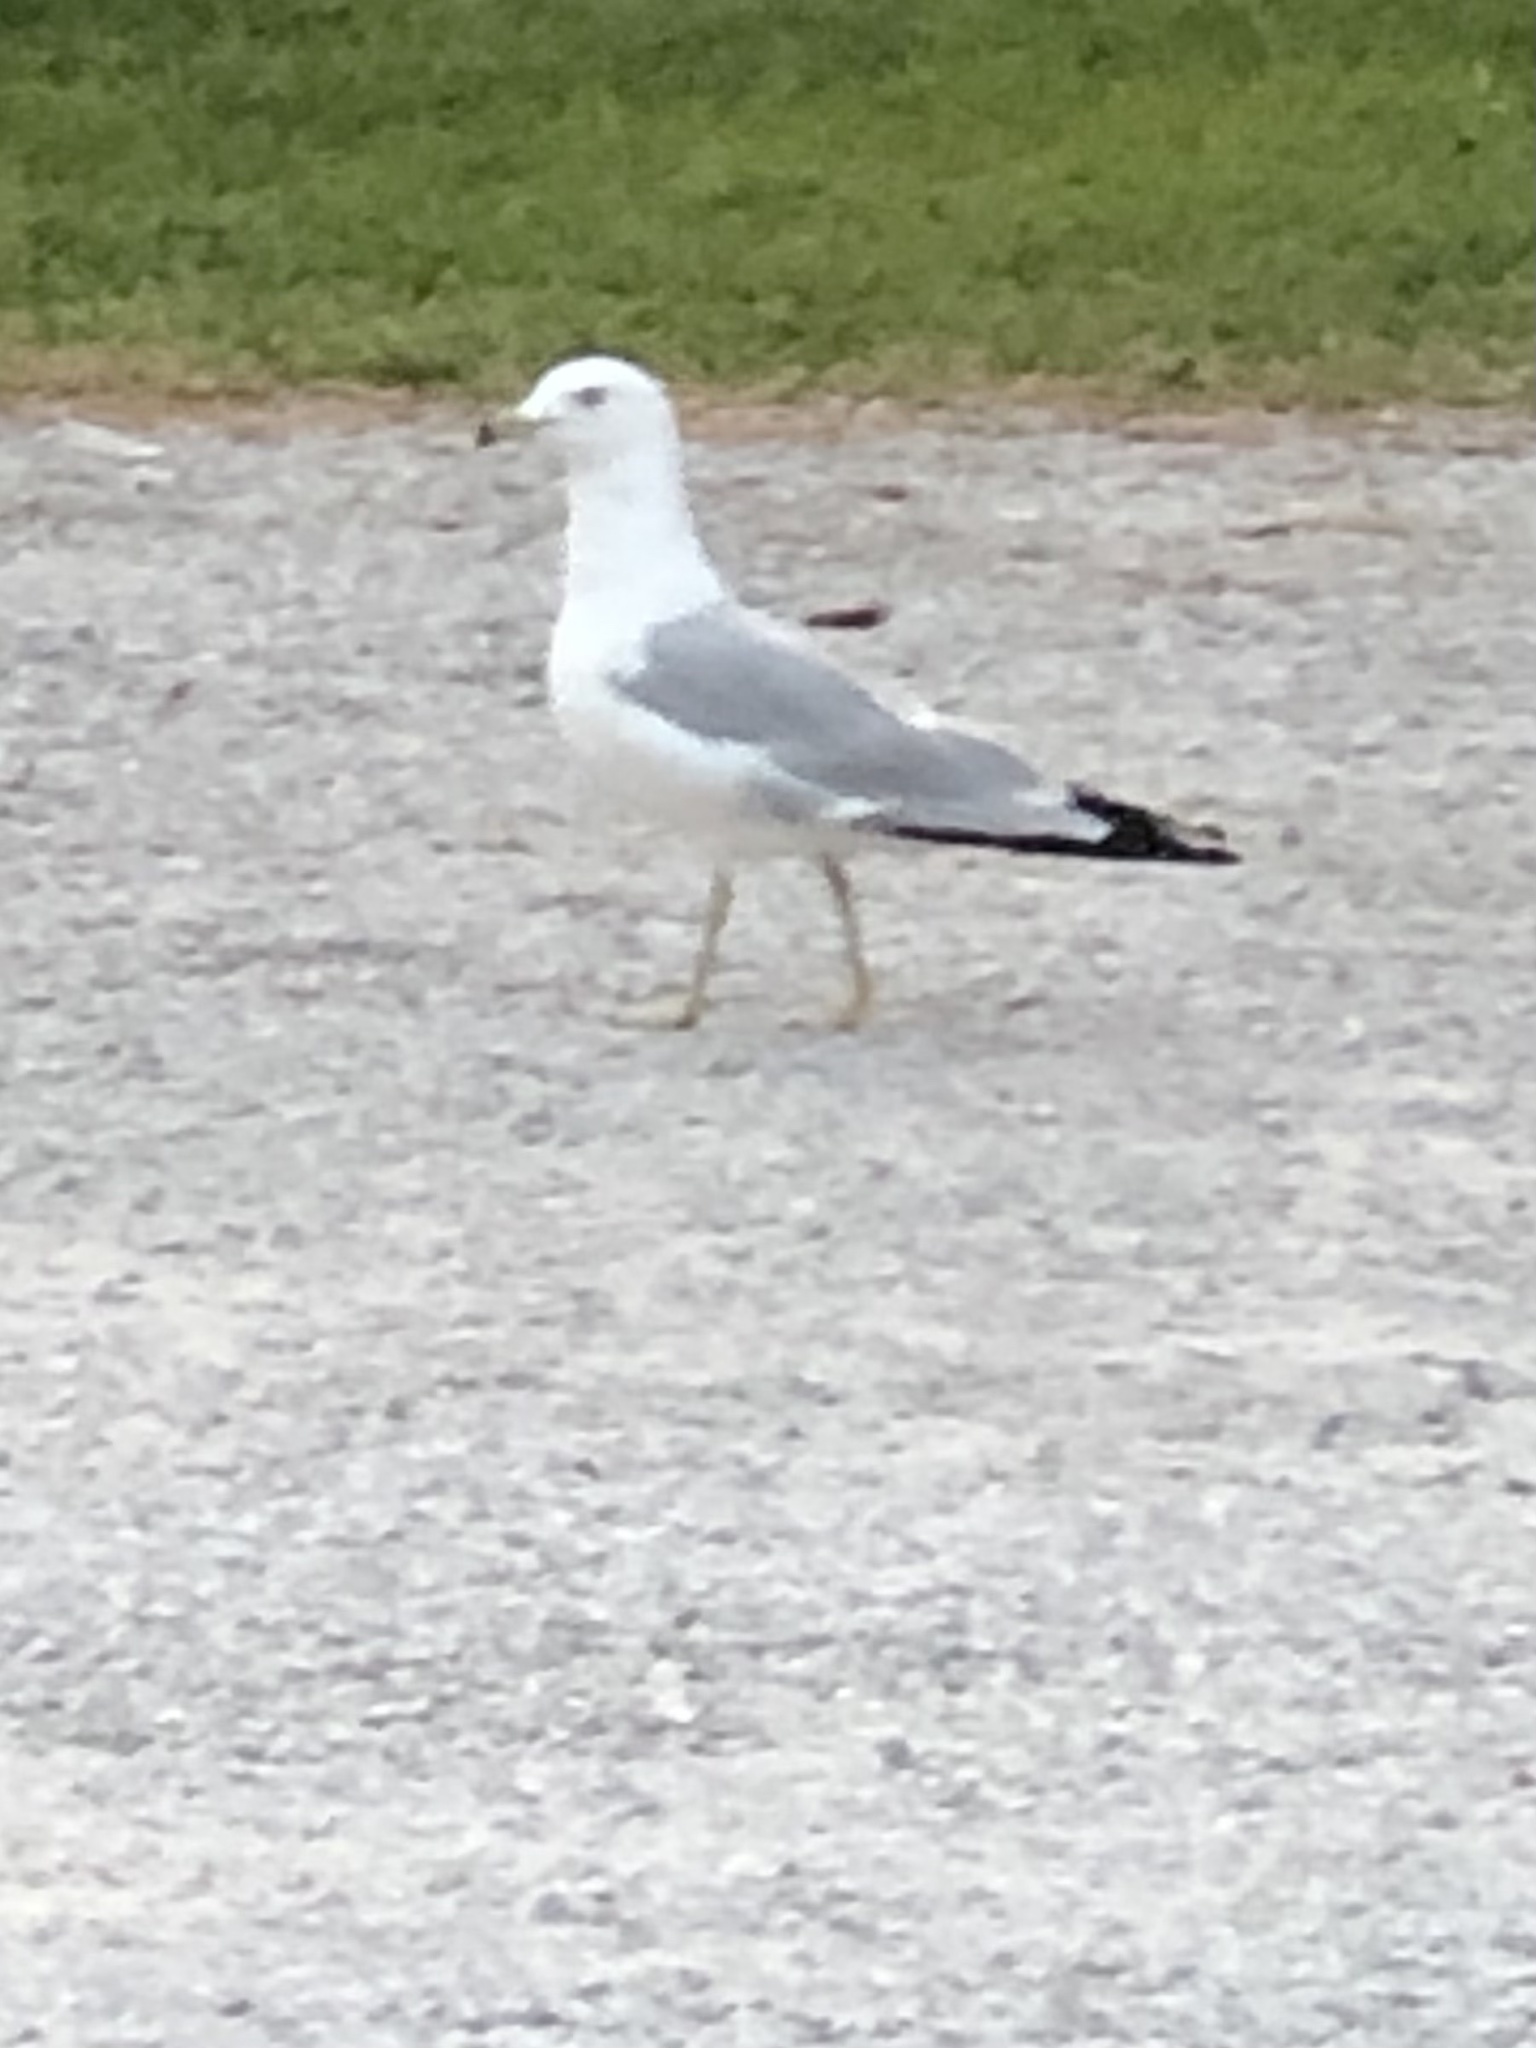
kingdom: Animalia
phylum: Chordata
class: Aves
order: Charadriiformes
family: Laridae
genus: Larus
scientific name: Larus delawarensis
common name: Ring-billed gull
